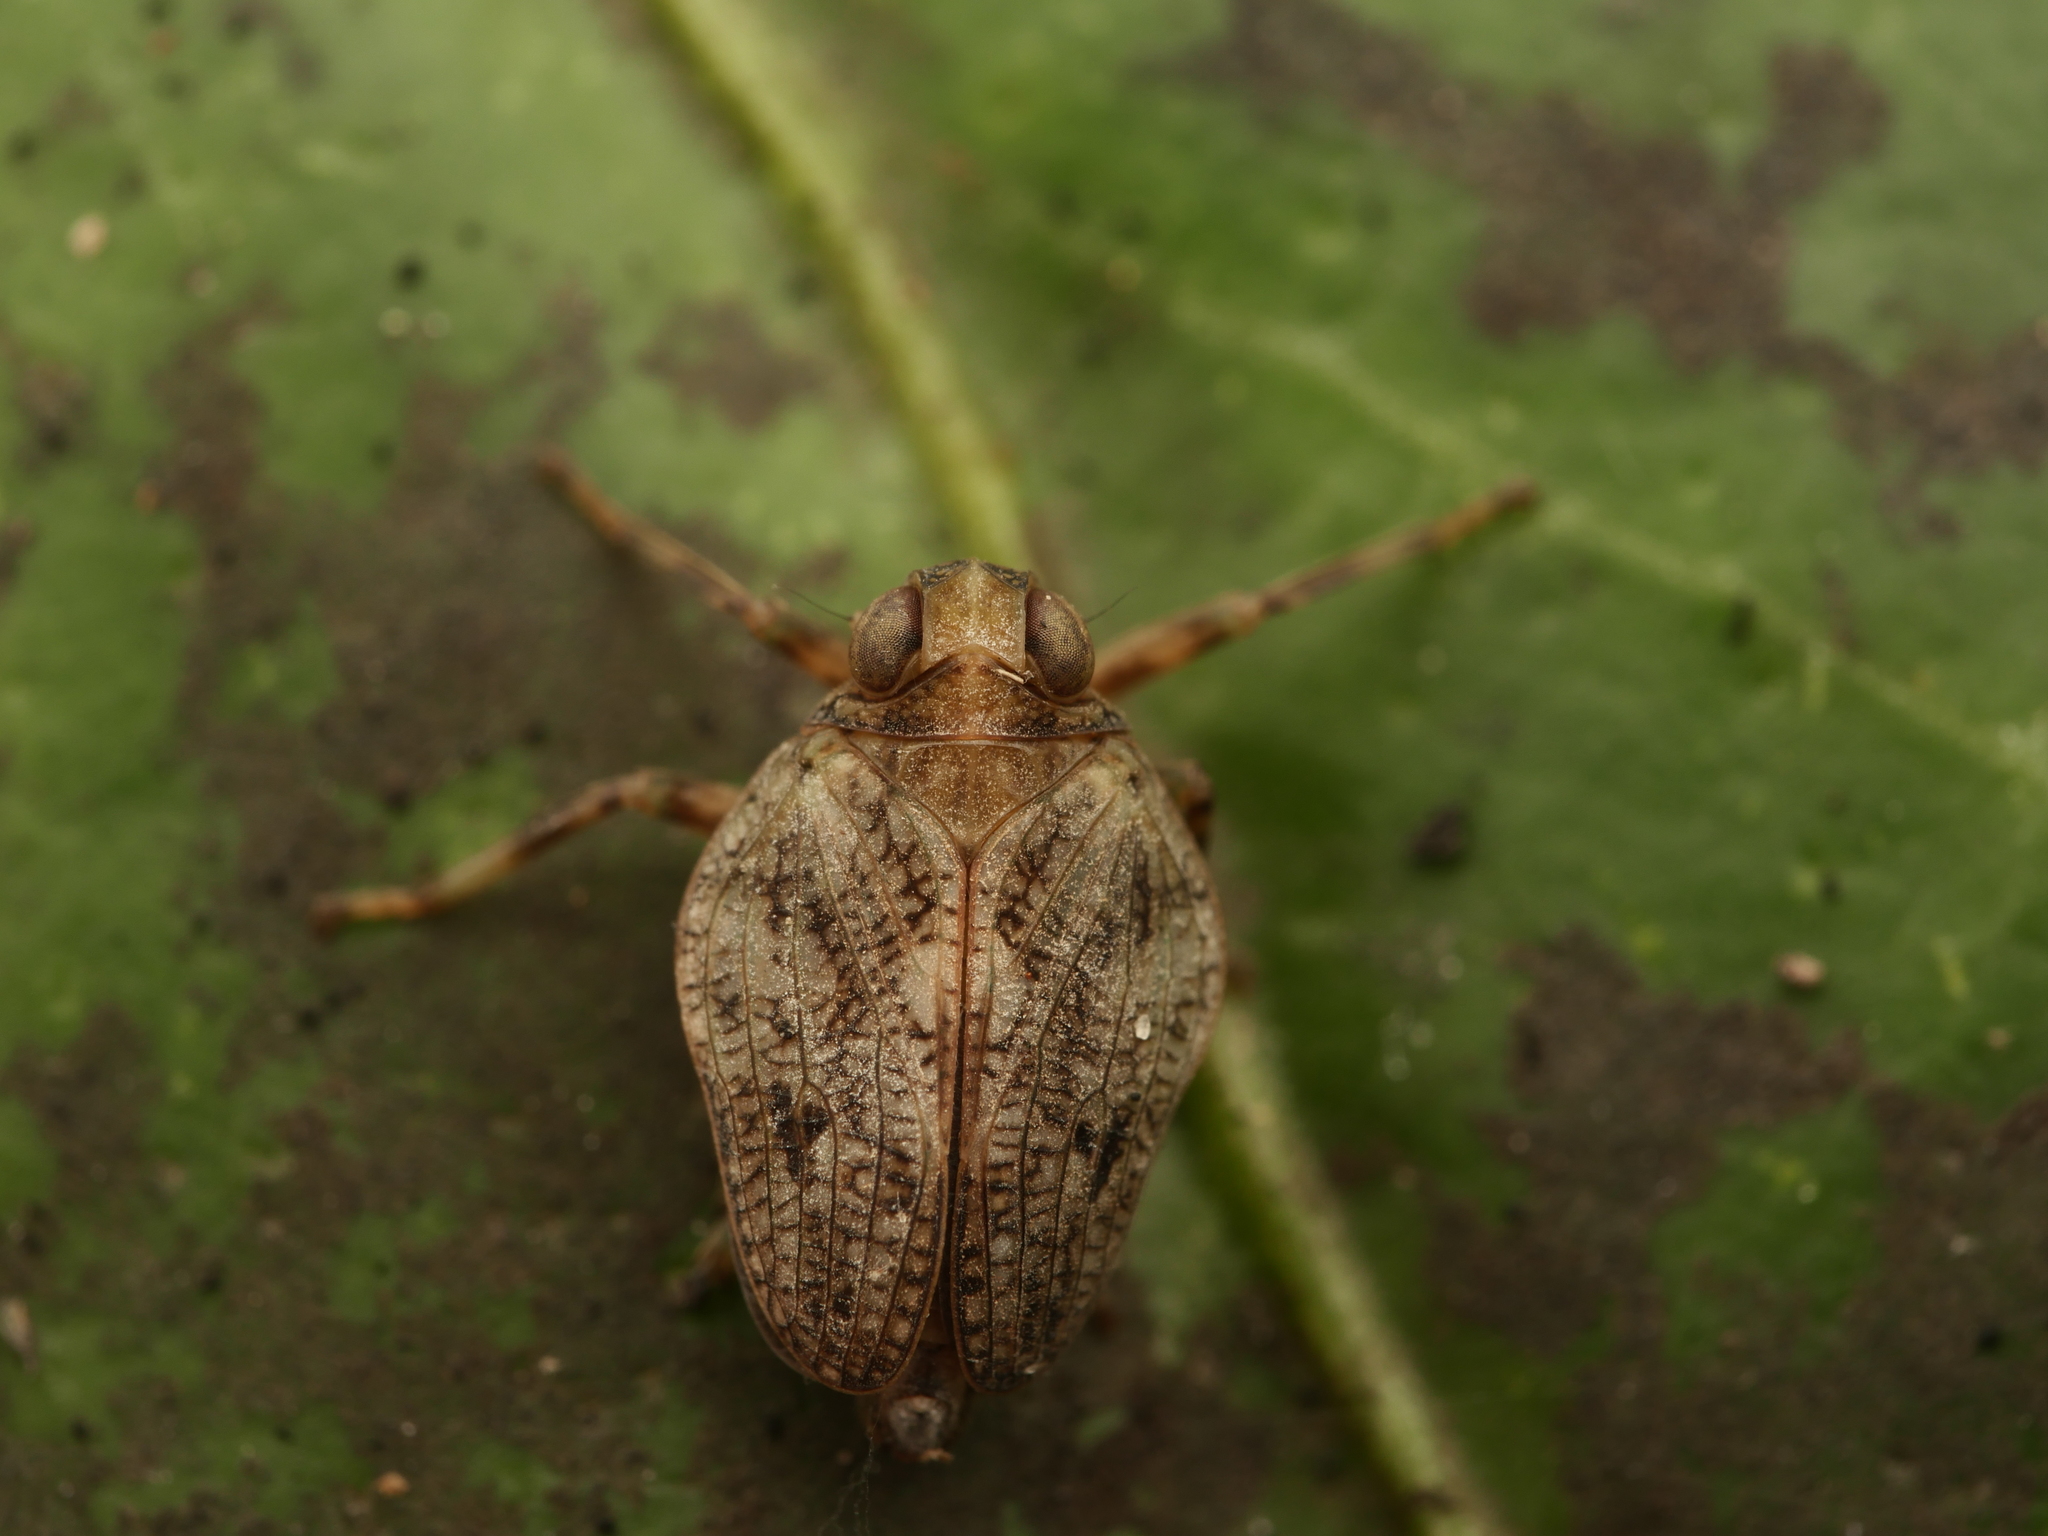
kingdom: Animalia
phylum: Arthropoda
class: Insecta
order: Hemiptera
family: Issidae
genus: Issus
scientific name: Issus coleoptratus
